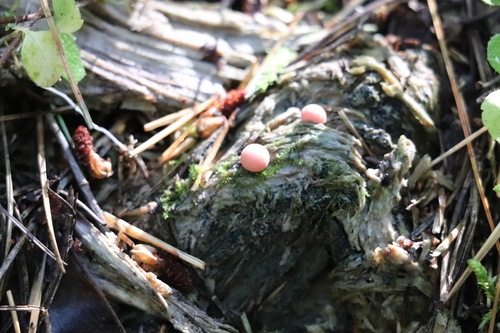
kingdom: Protozoa
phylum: Mycetozoa
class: Myxomycetes
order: Cribrariales
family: Tubiferaceae
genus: Lycogala
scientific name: Lycogala epidendrum
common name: Wolf's milk
